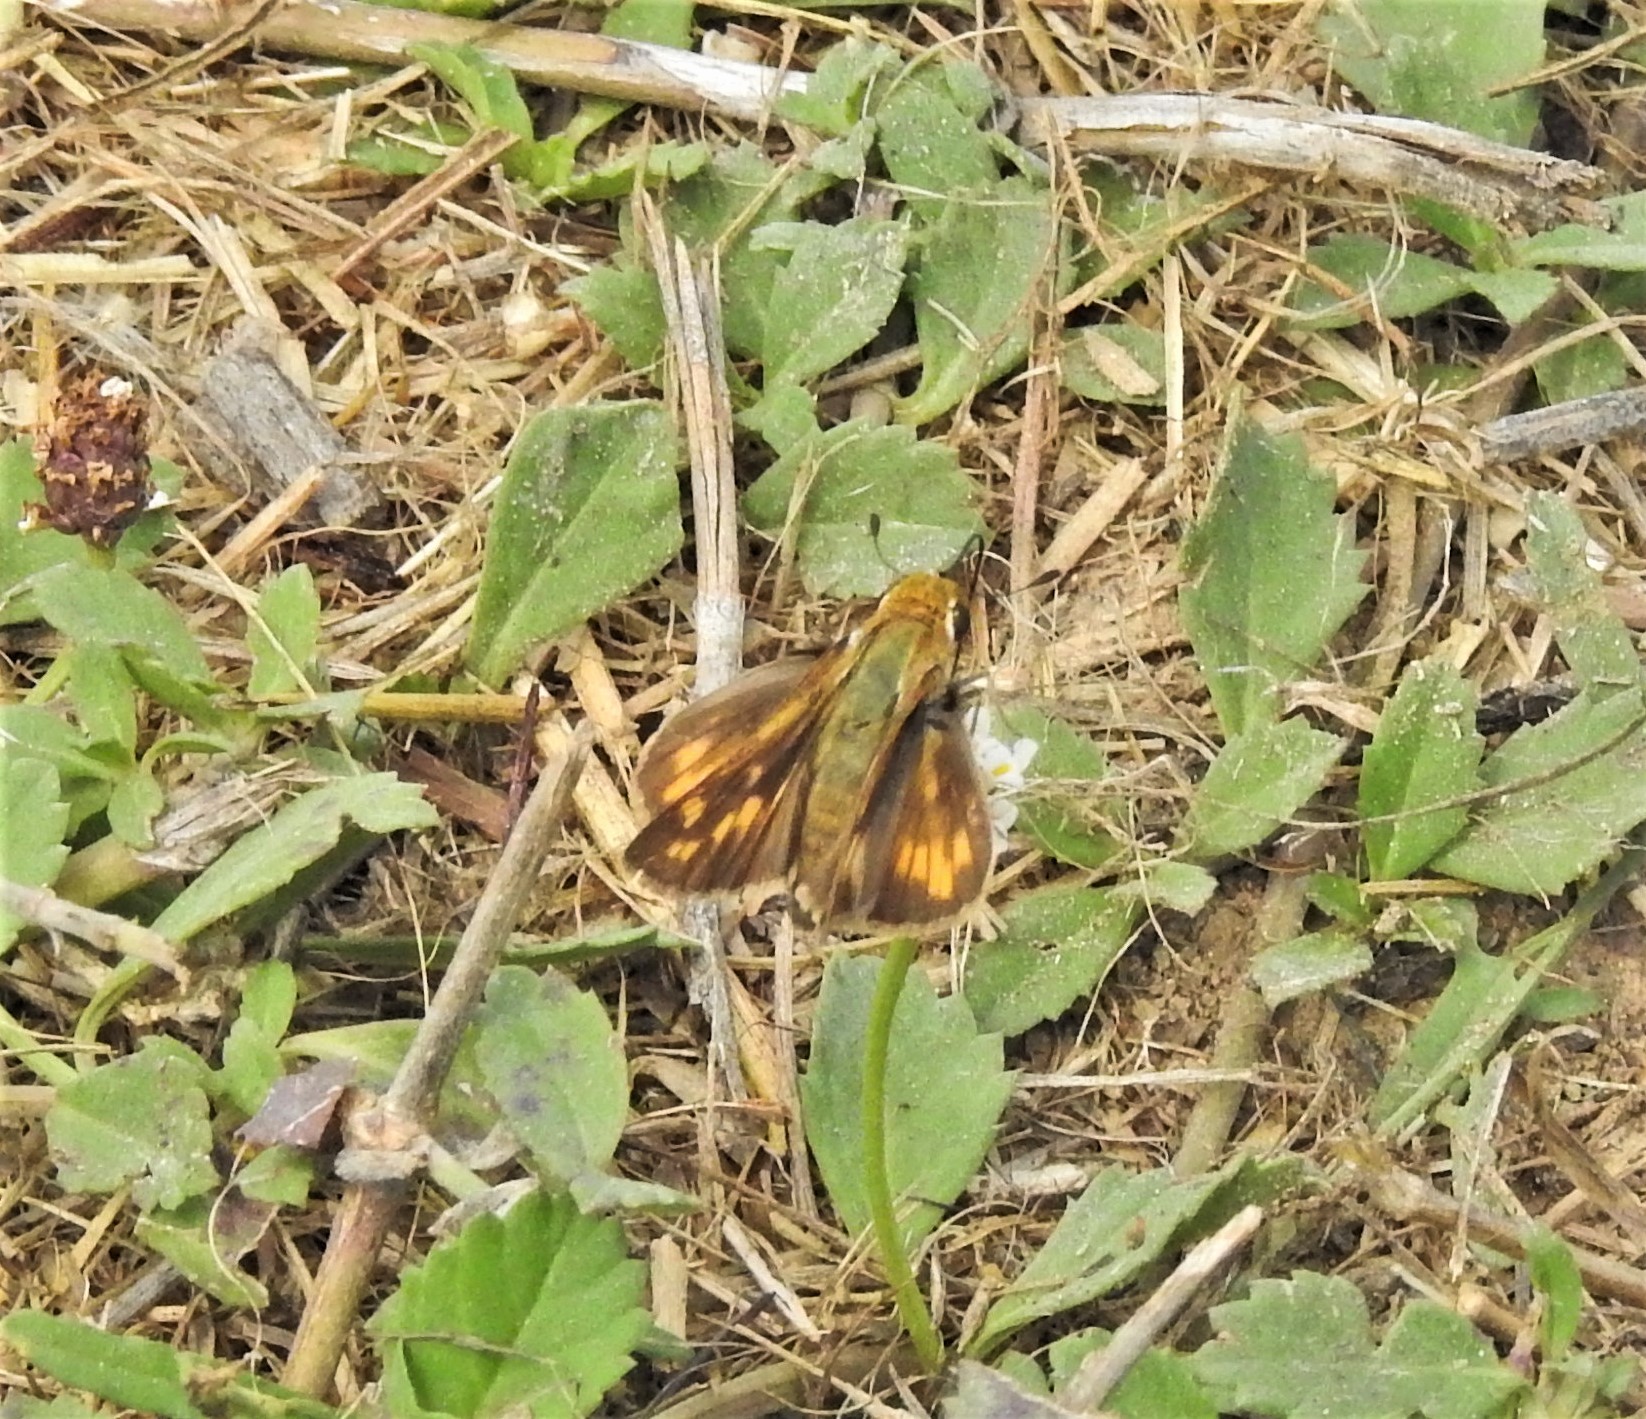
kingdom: Animalia
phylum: Arthropoda
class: Insecta
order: Lepidoptera
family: Hesperiidae
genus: Hylephila
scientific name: Hylephila phyleus
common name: Fiery skipper
